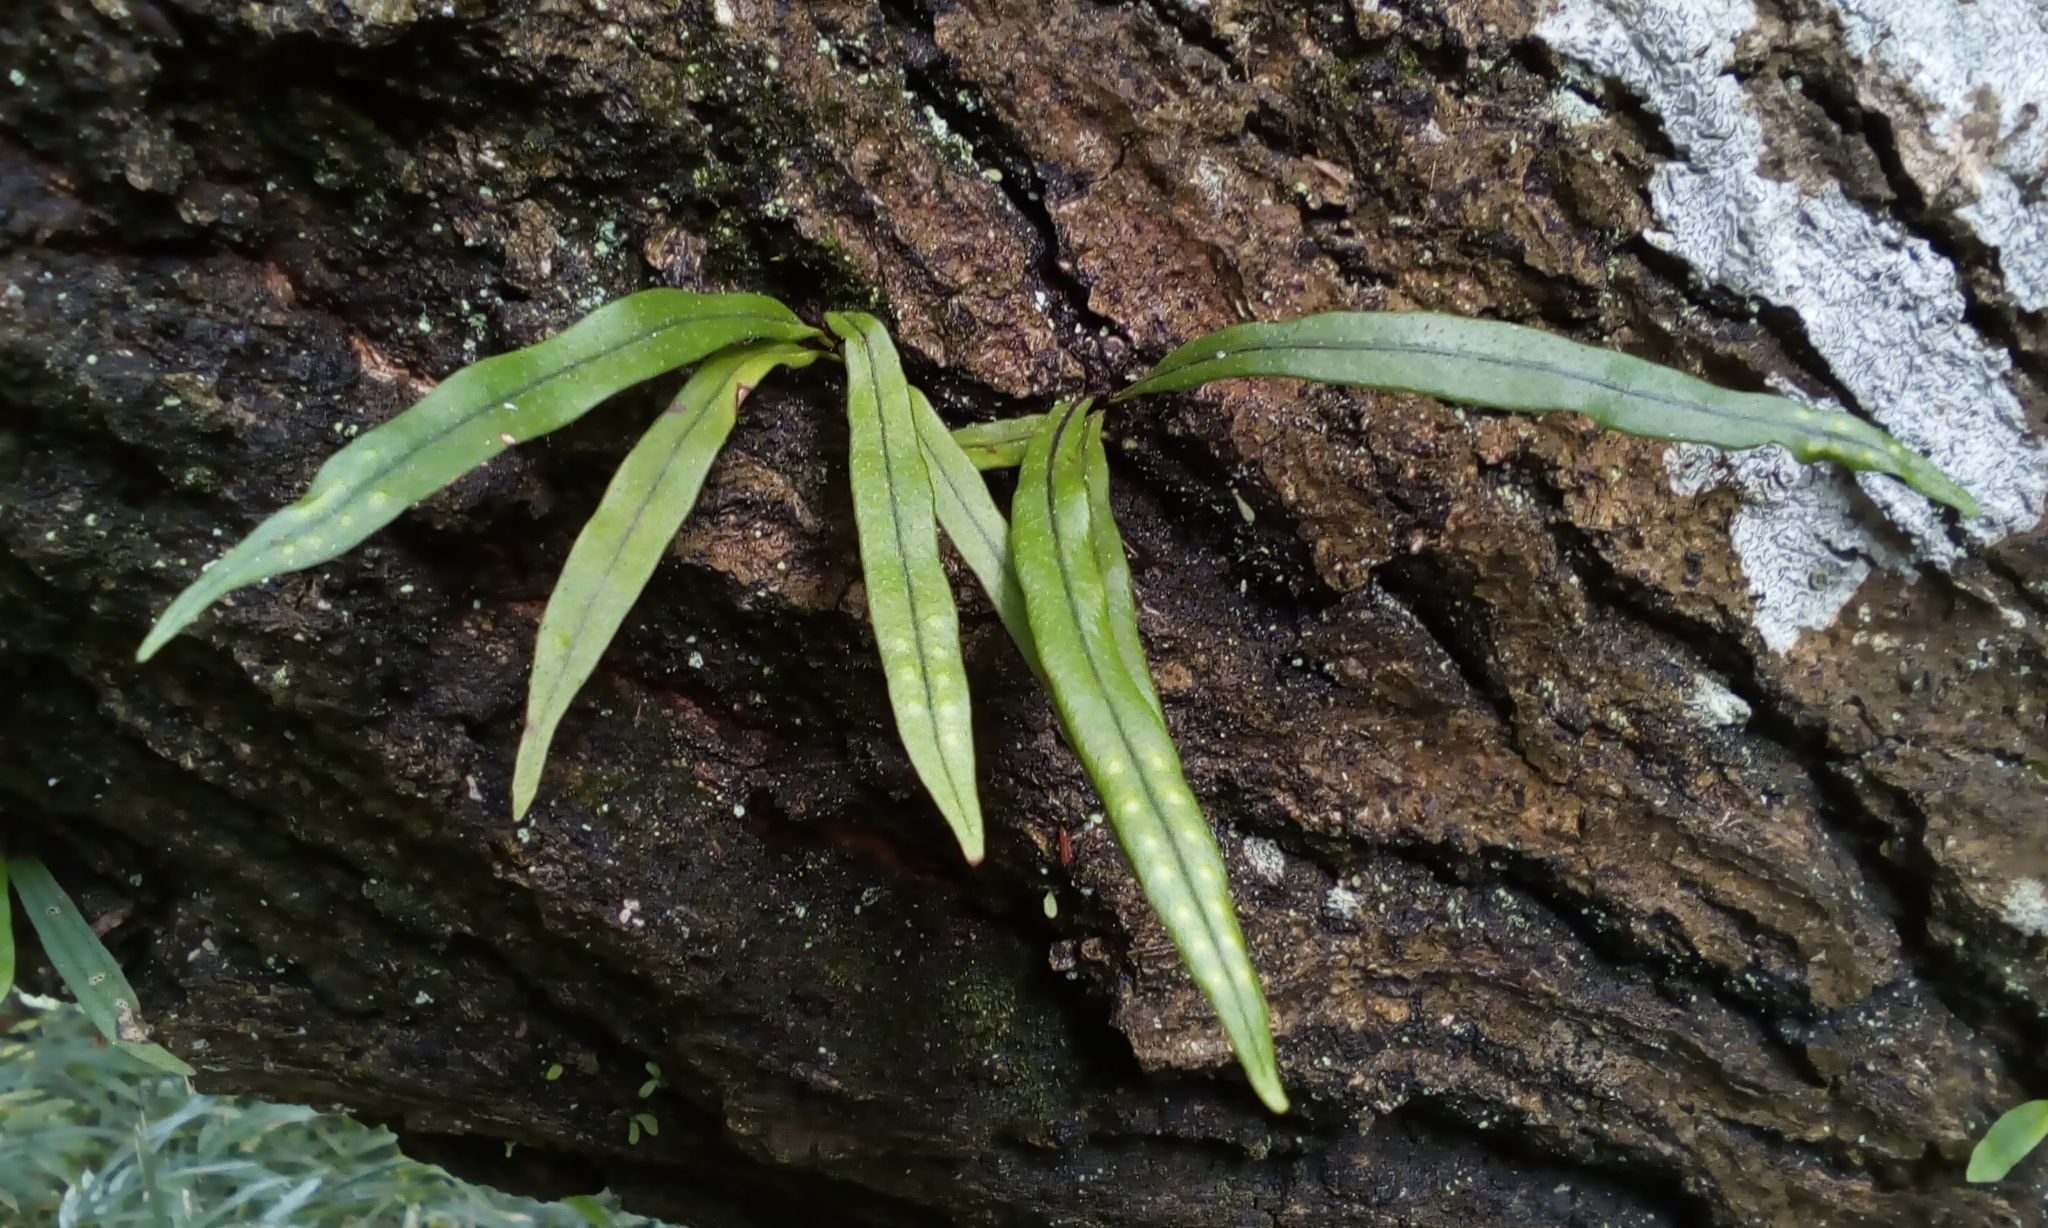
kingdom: Plantae
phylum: Tracheophyta
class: Polypodiopsida
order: Polypodiales
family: Polypodiaceae
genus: Lepisorus
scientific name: Lepisorus thunbergianus
